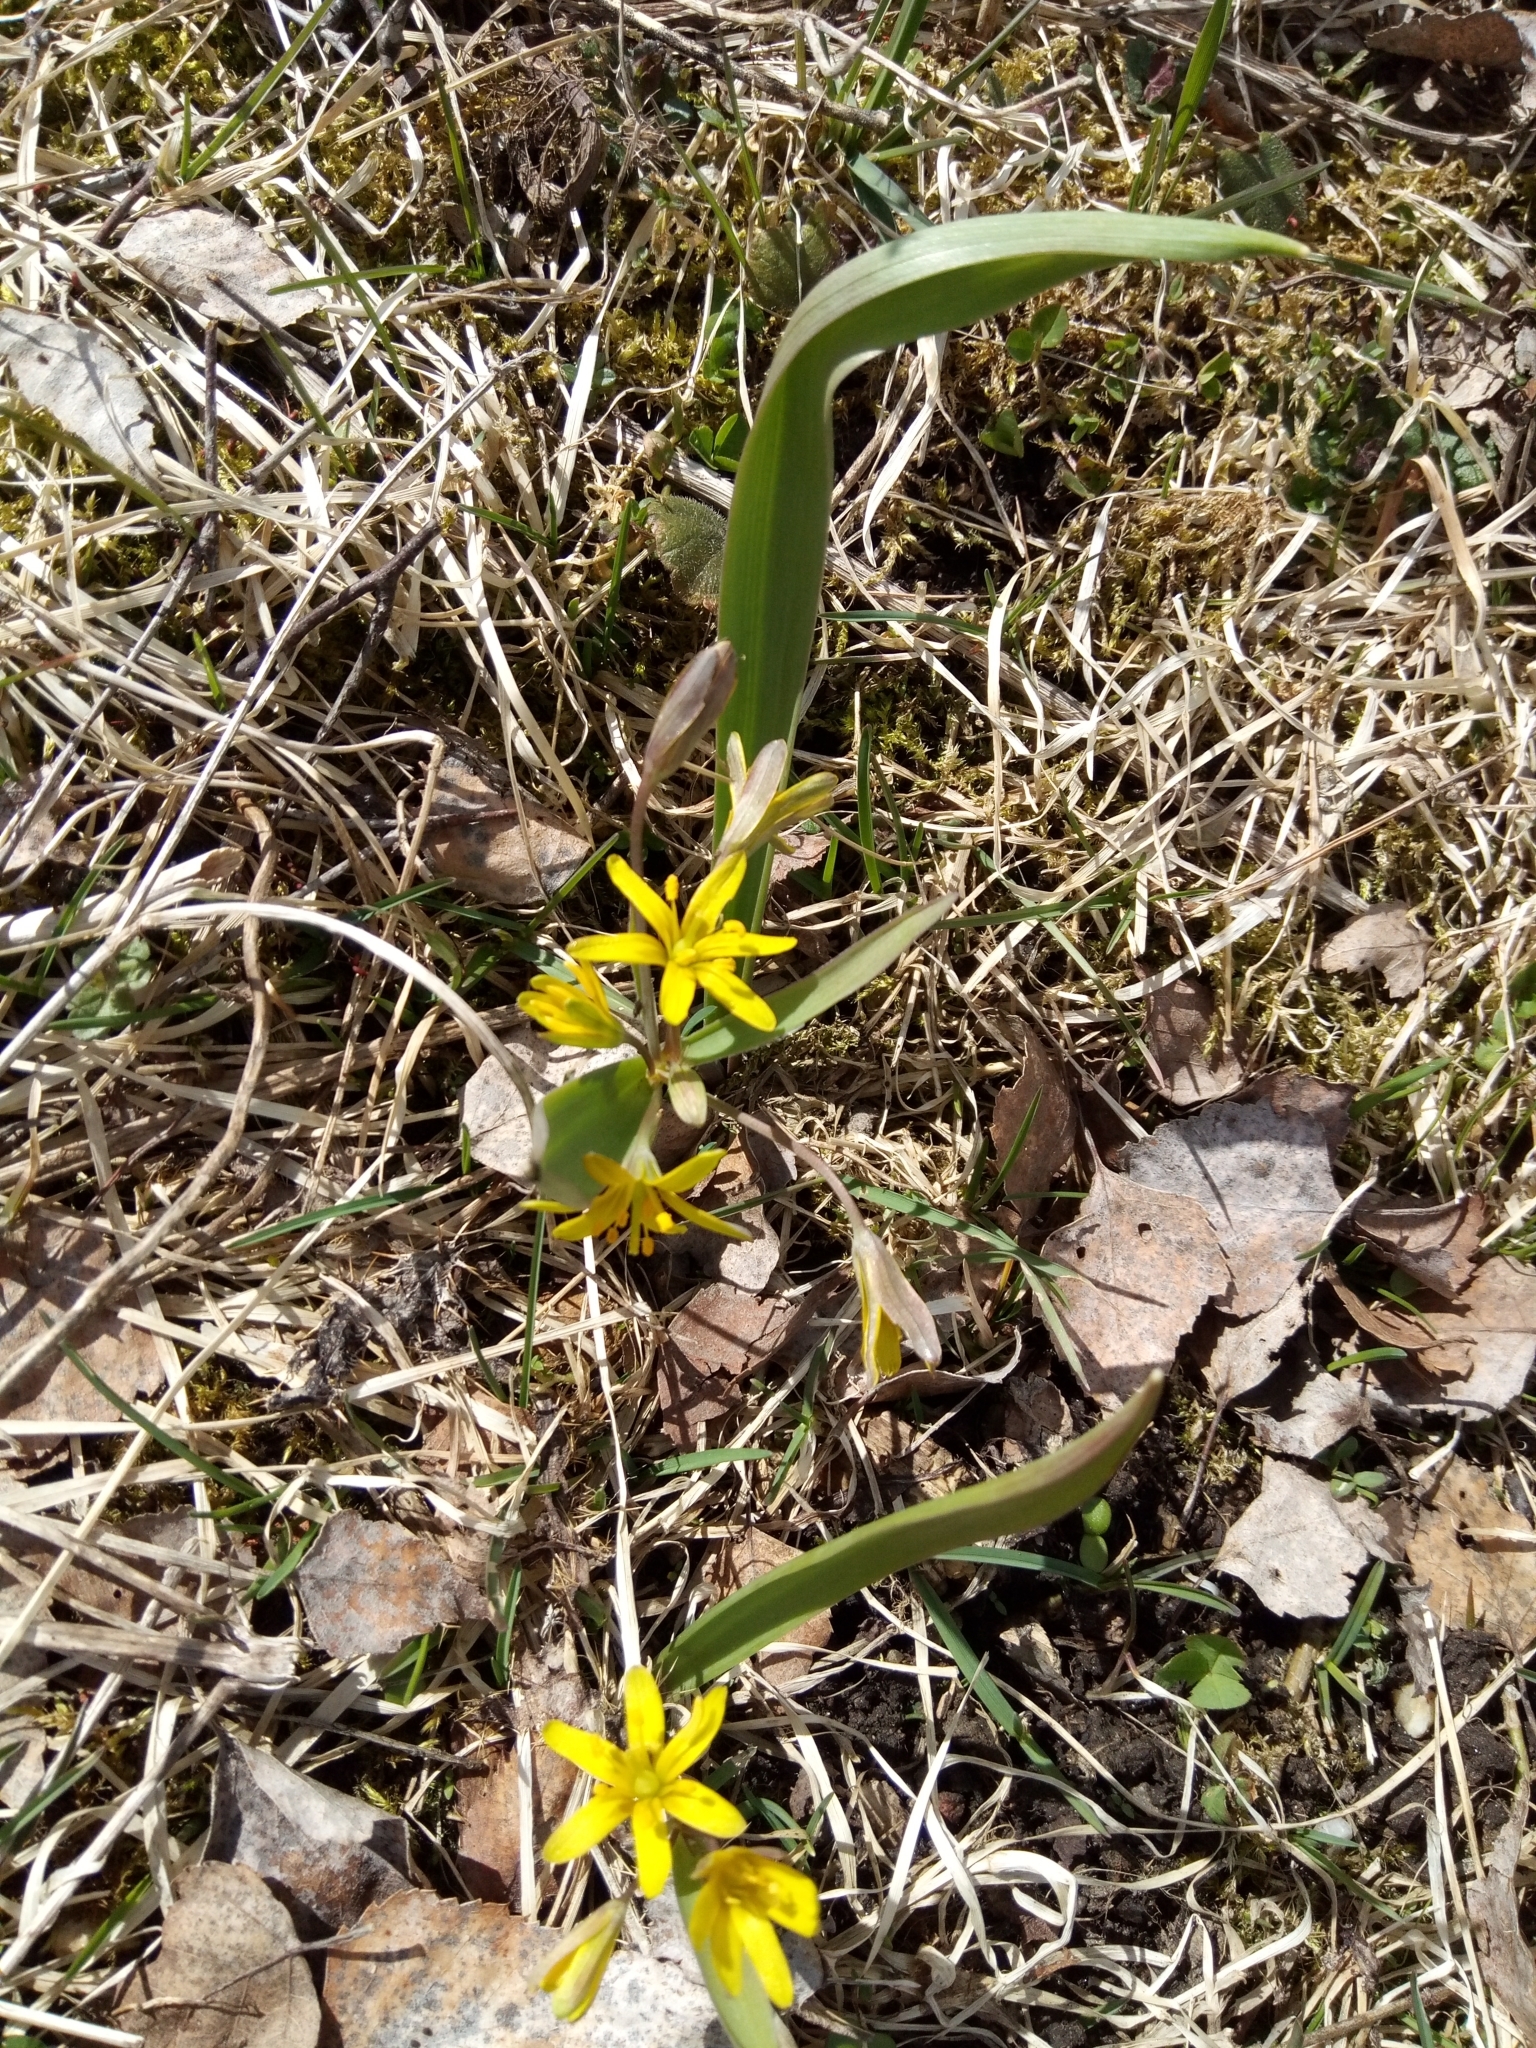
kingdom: Plantae
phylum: Tracheophyta
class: Liliopsida
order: Liliales
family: Liliaceae
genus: Gagea
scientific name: Gagea lutea
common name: Yellow star-of-bethlehem
